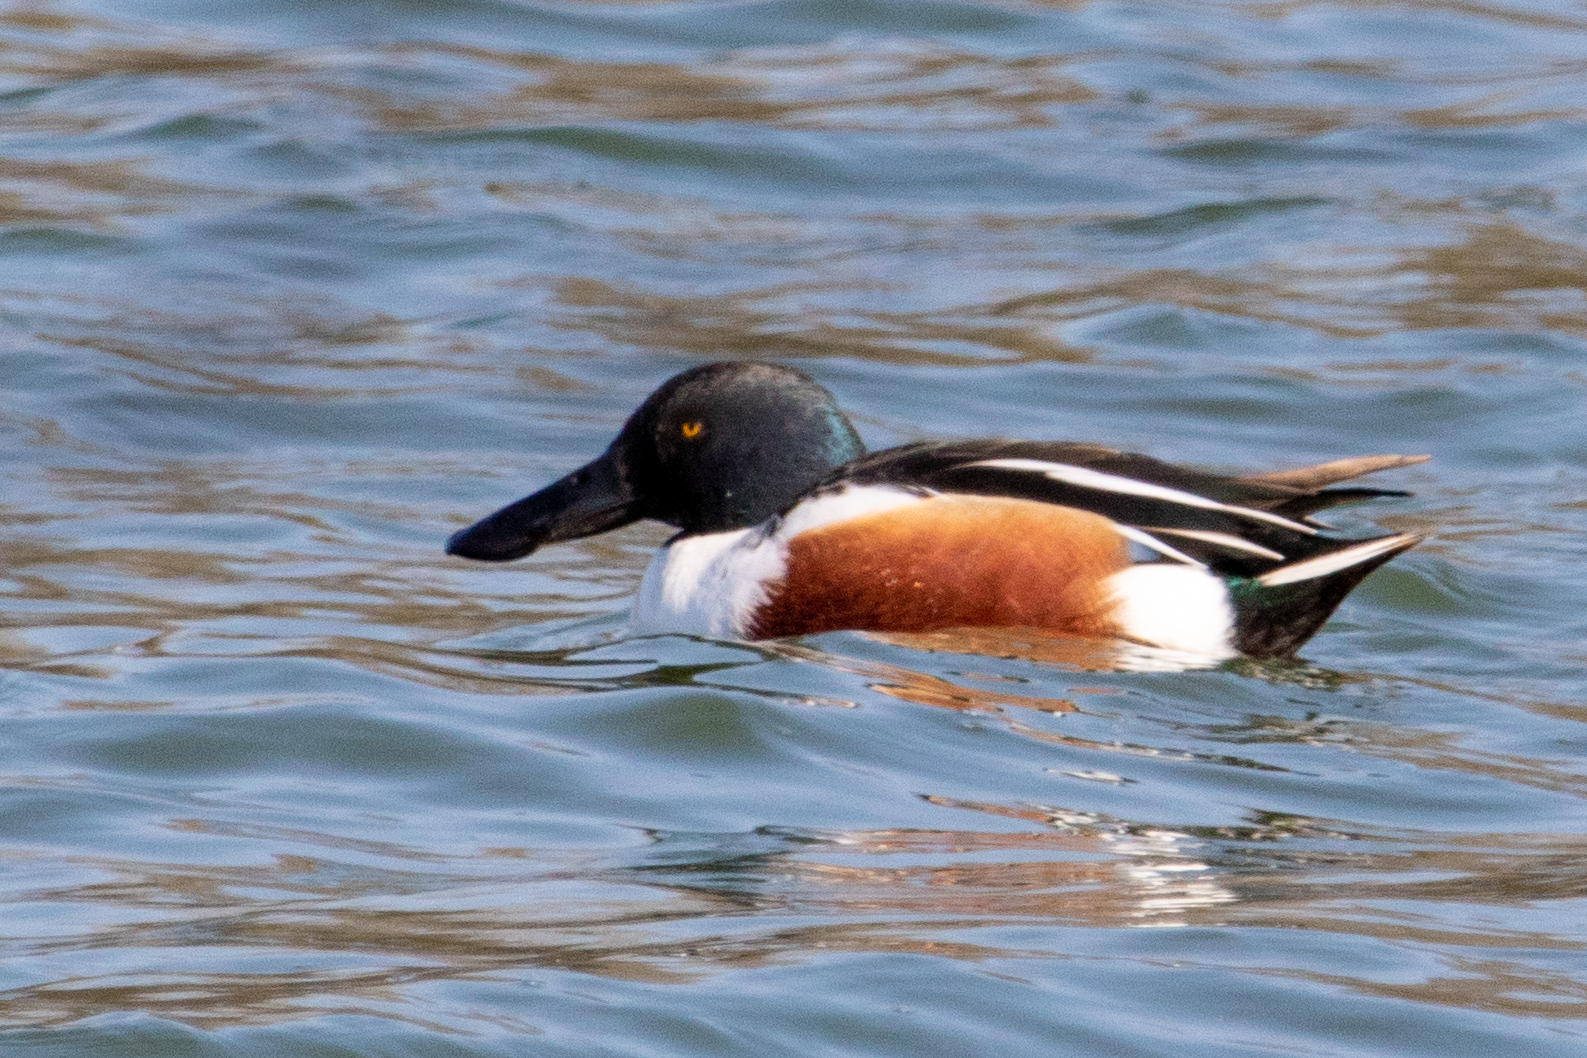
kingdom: Animalia
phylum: Chordata
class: Aves
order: Anseriformes
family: Anatidae
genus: Spatula
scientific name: Spatula clypeata
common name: Northern shoveler
